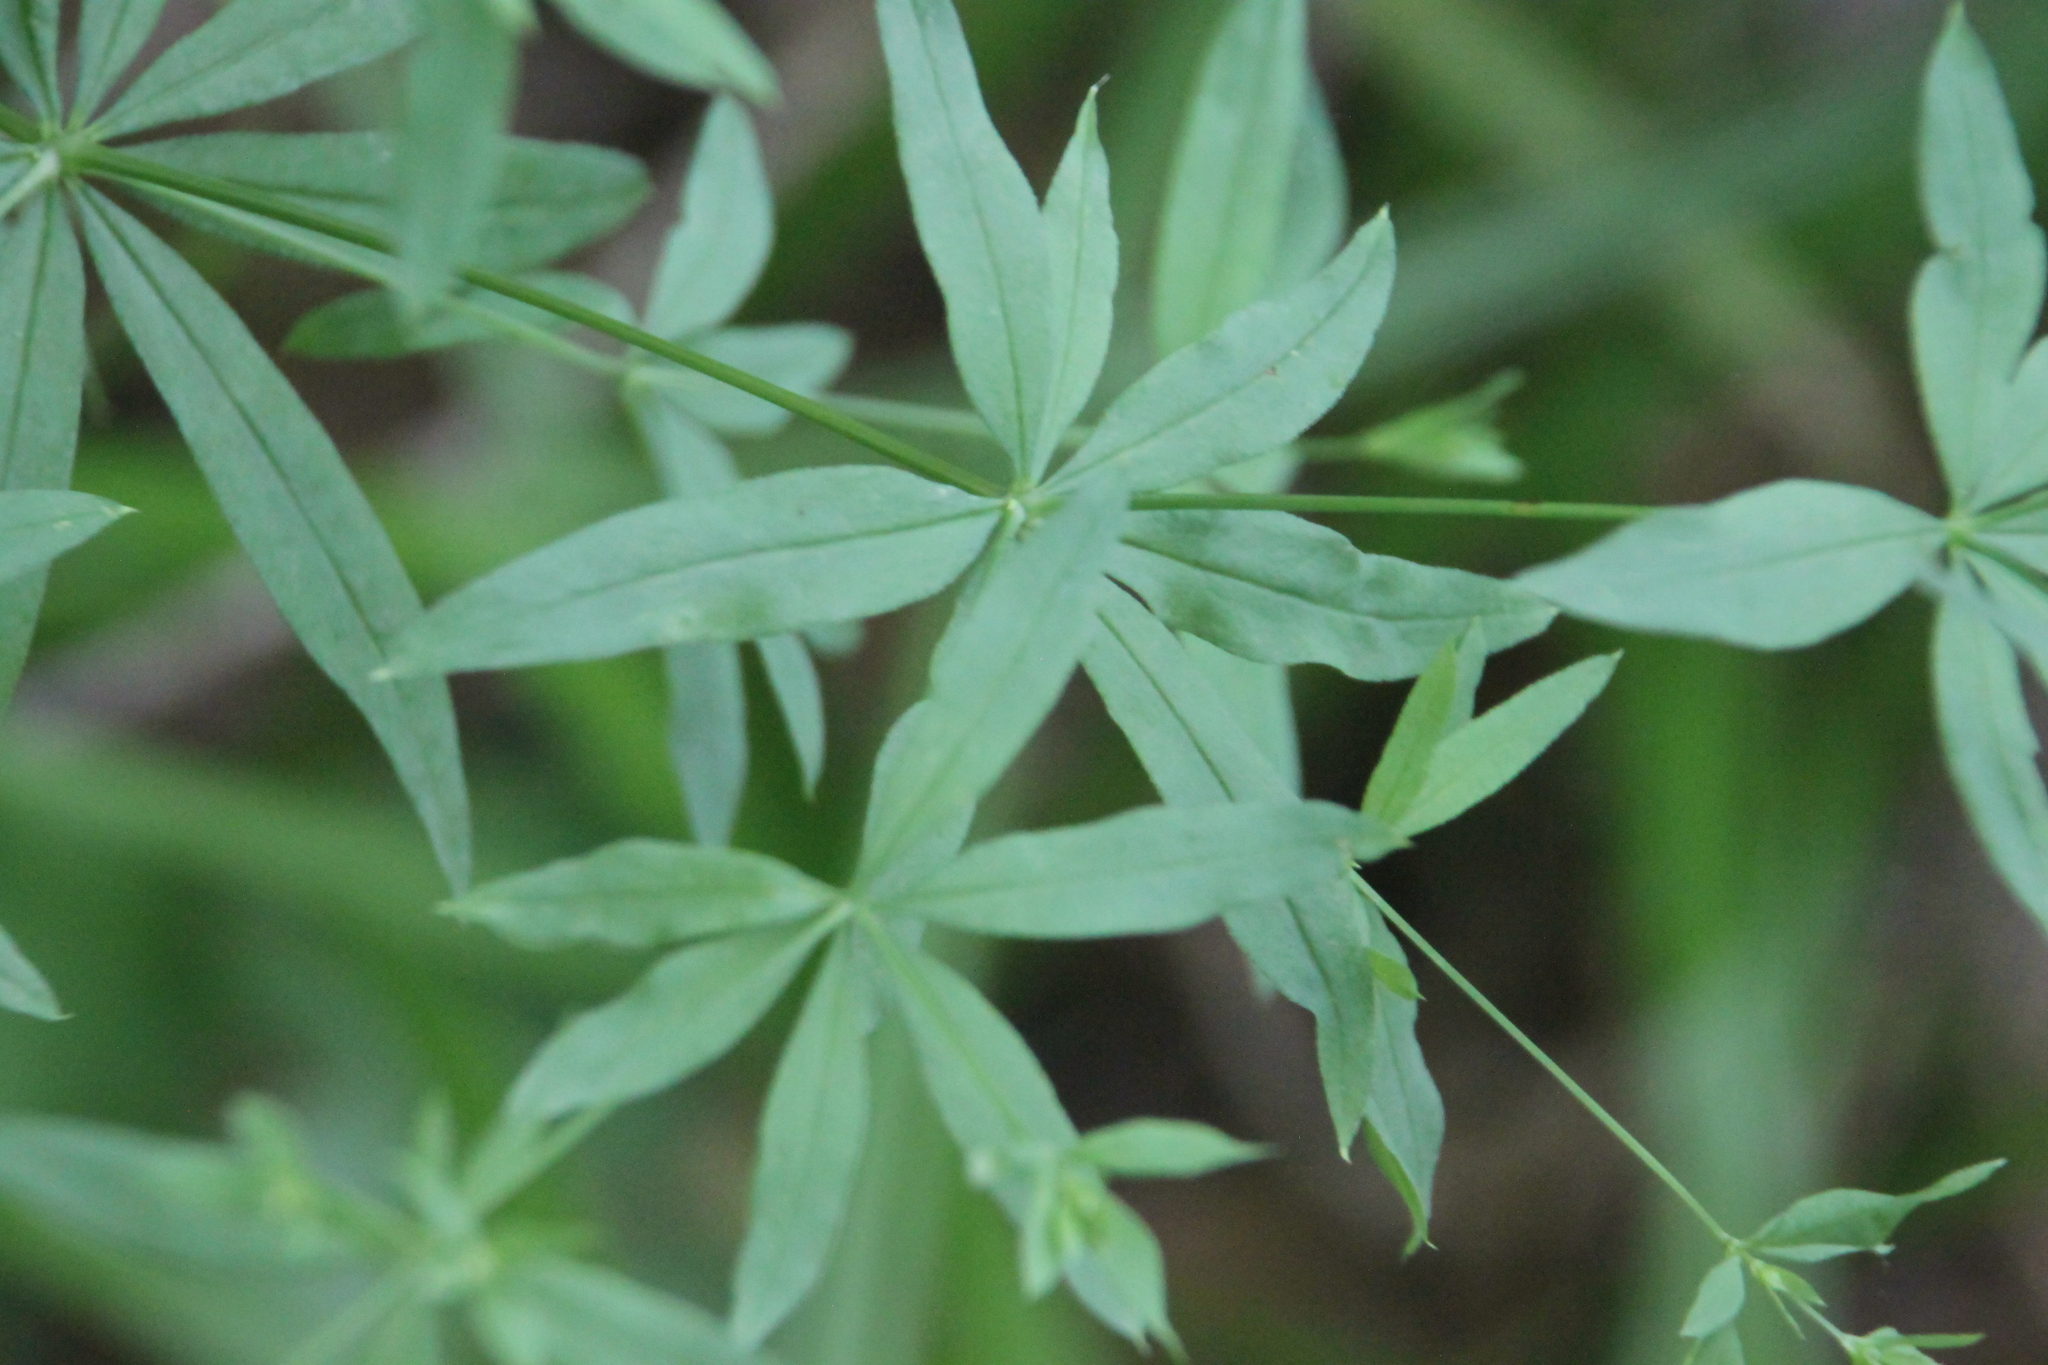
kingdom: Plantae
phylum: Tracheophyta
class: Magnoliopsida
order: Gentianales
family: Rubiaceae
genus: Galium
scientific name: Galium intermedium
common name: Bedstraw
